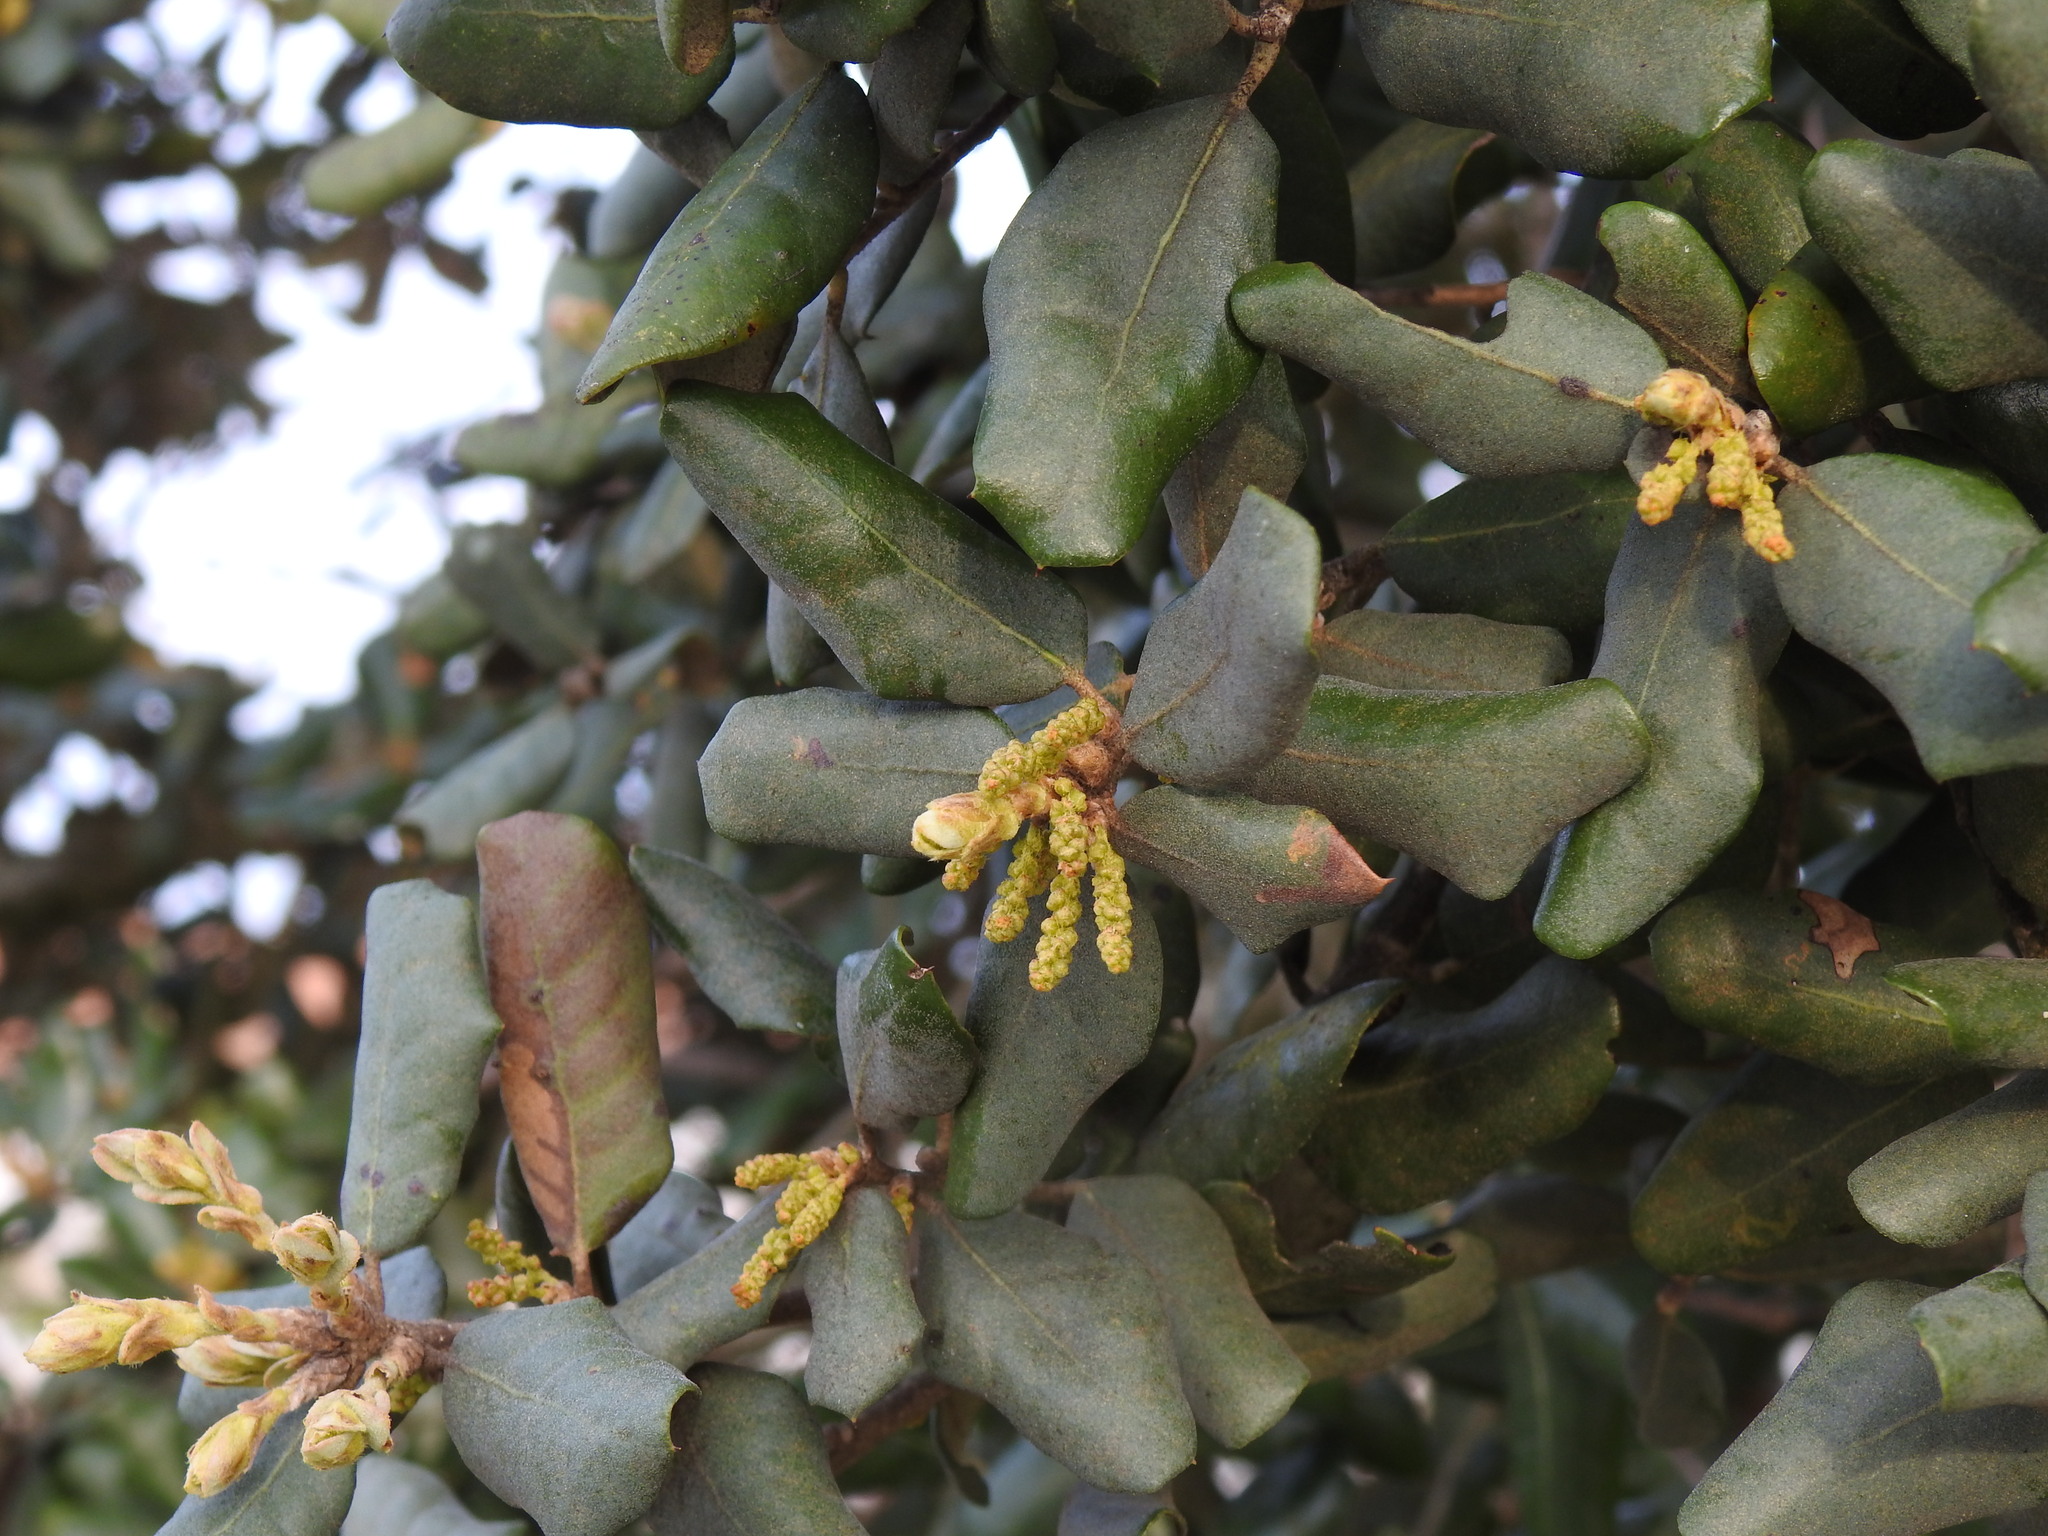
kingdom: Plantae
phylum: Tracheophyta
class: Magnoliopsida
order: Fagales
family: Fagaceae
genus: Quercus
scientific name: Quercus rotundifolia
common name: Holm oak
